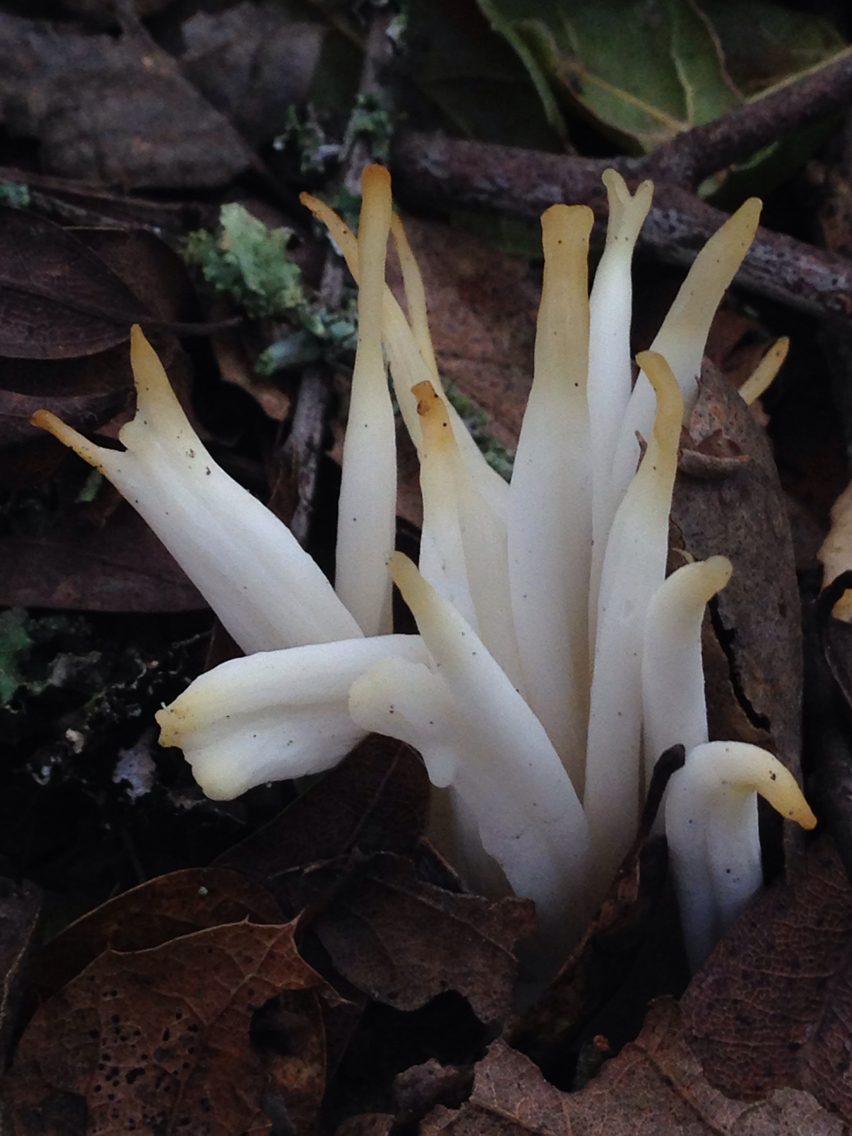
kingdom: Fungi
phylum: Basidiomycota
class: Agaricomycetes
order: Agaricales
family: Clavariaceae
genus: Clavaria
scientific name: Clavaria fragilis
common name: White spindles
